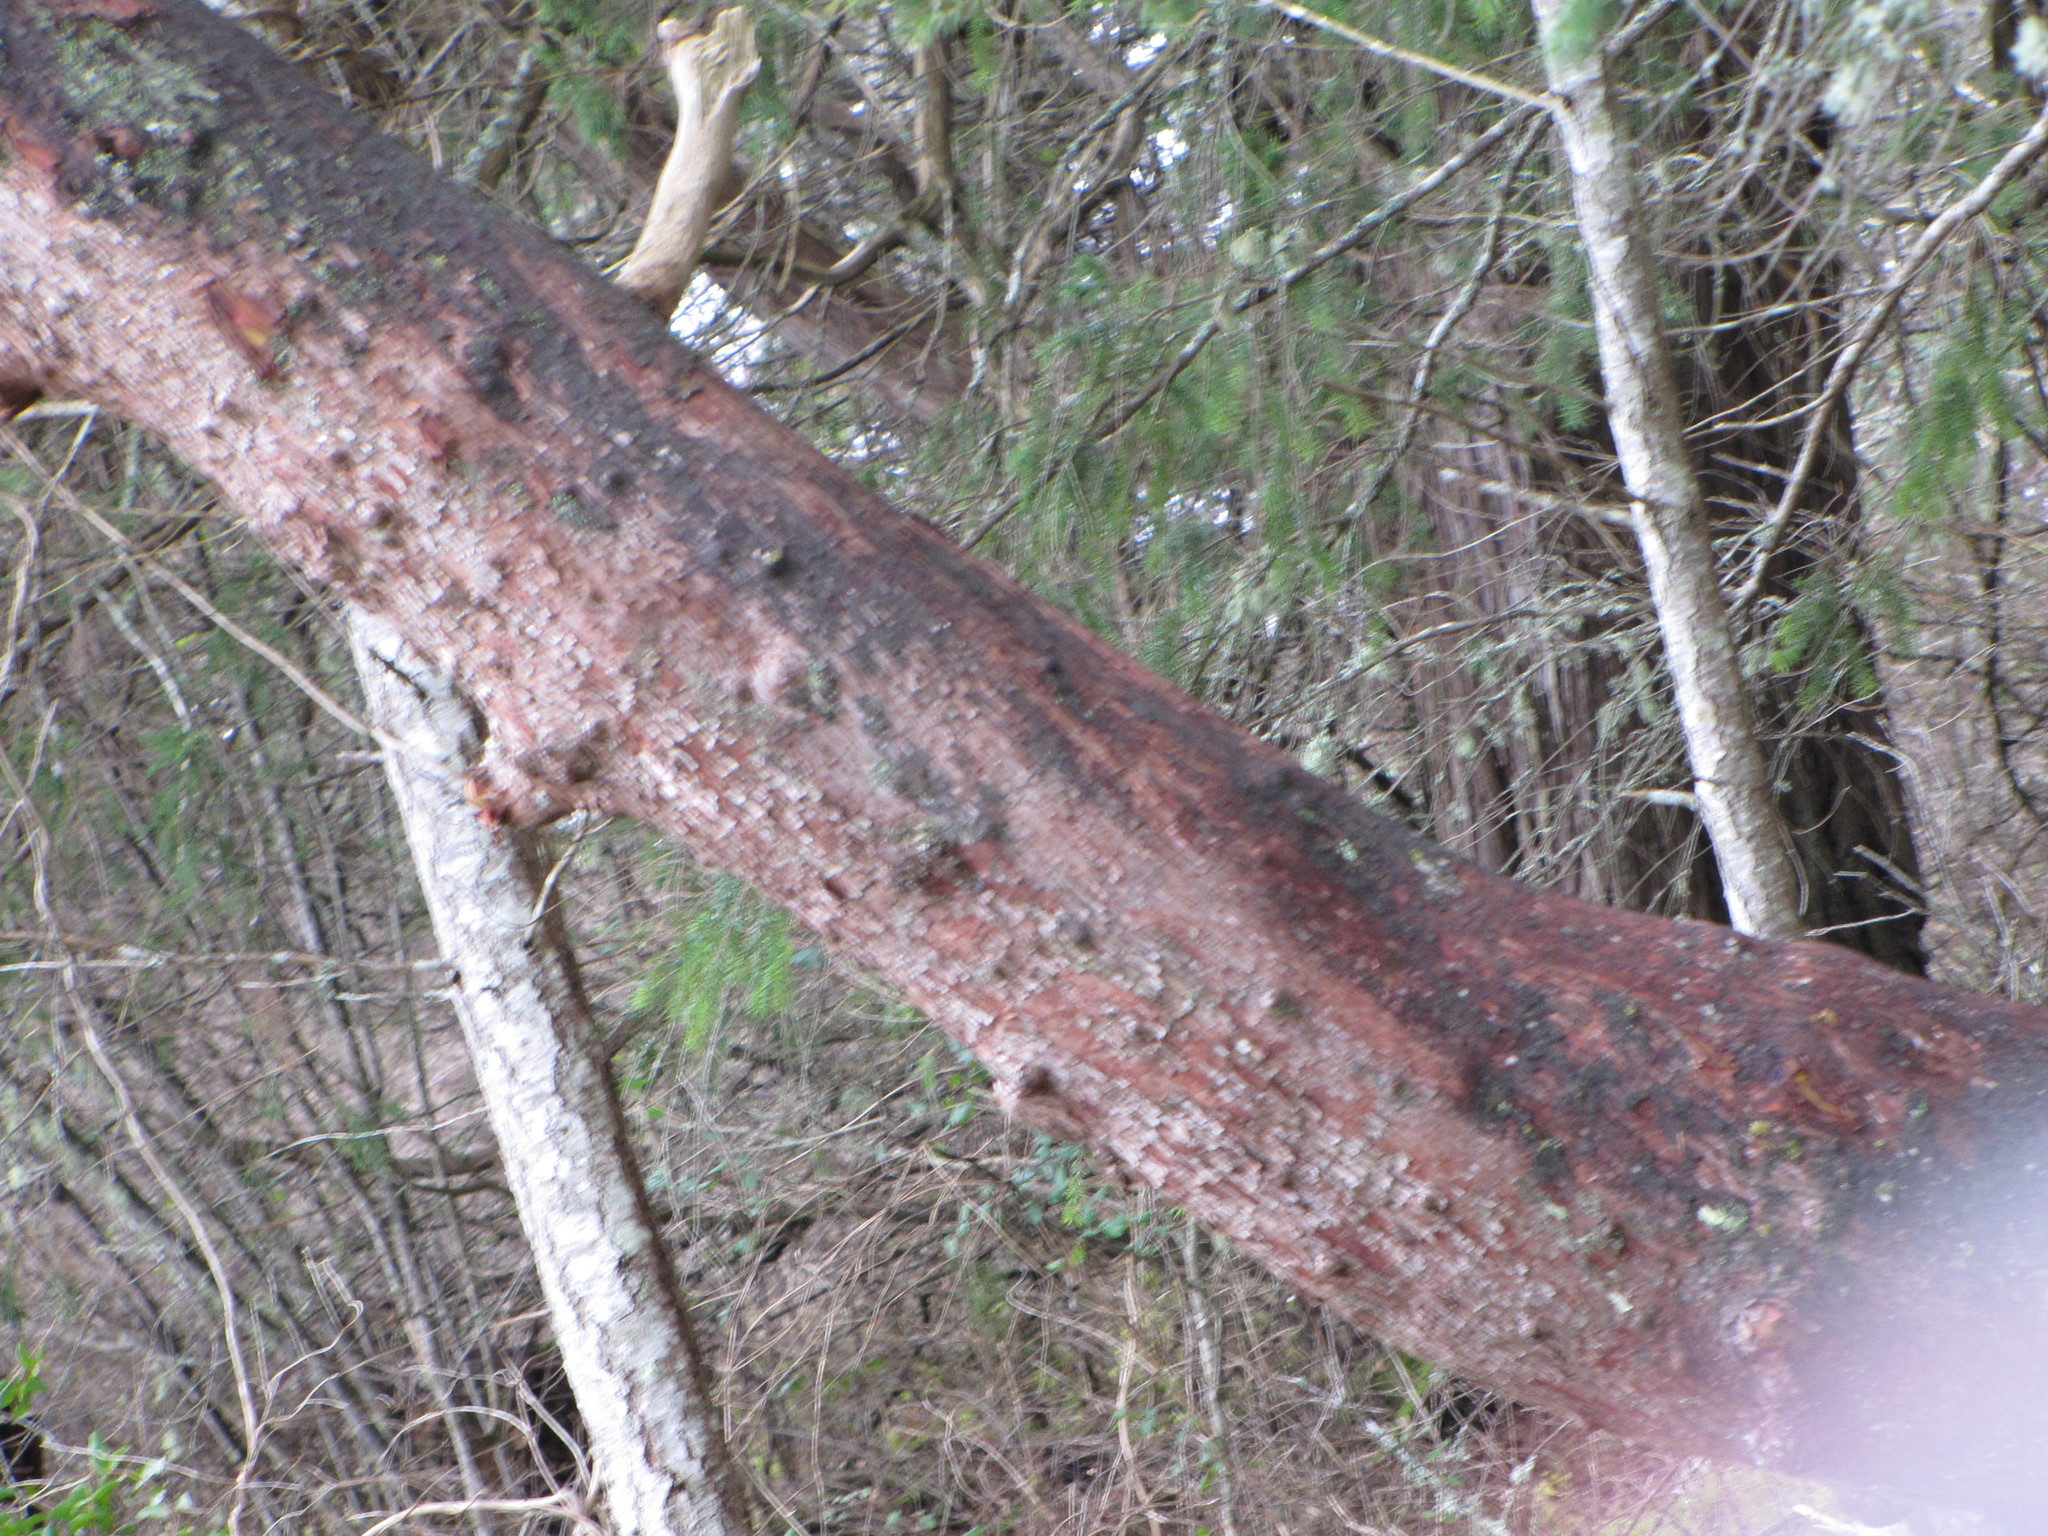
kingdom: Plantae
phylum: Tracheophyta
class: Magnoliopsida
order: Ericales
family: Ericaceae
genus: Arbutus
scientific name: Arbutus menziesii
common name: Pacific madrone
